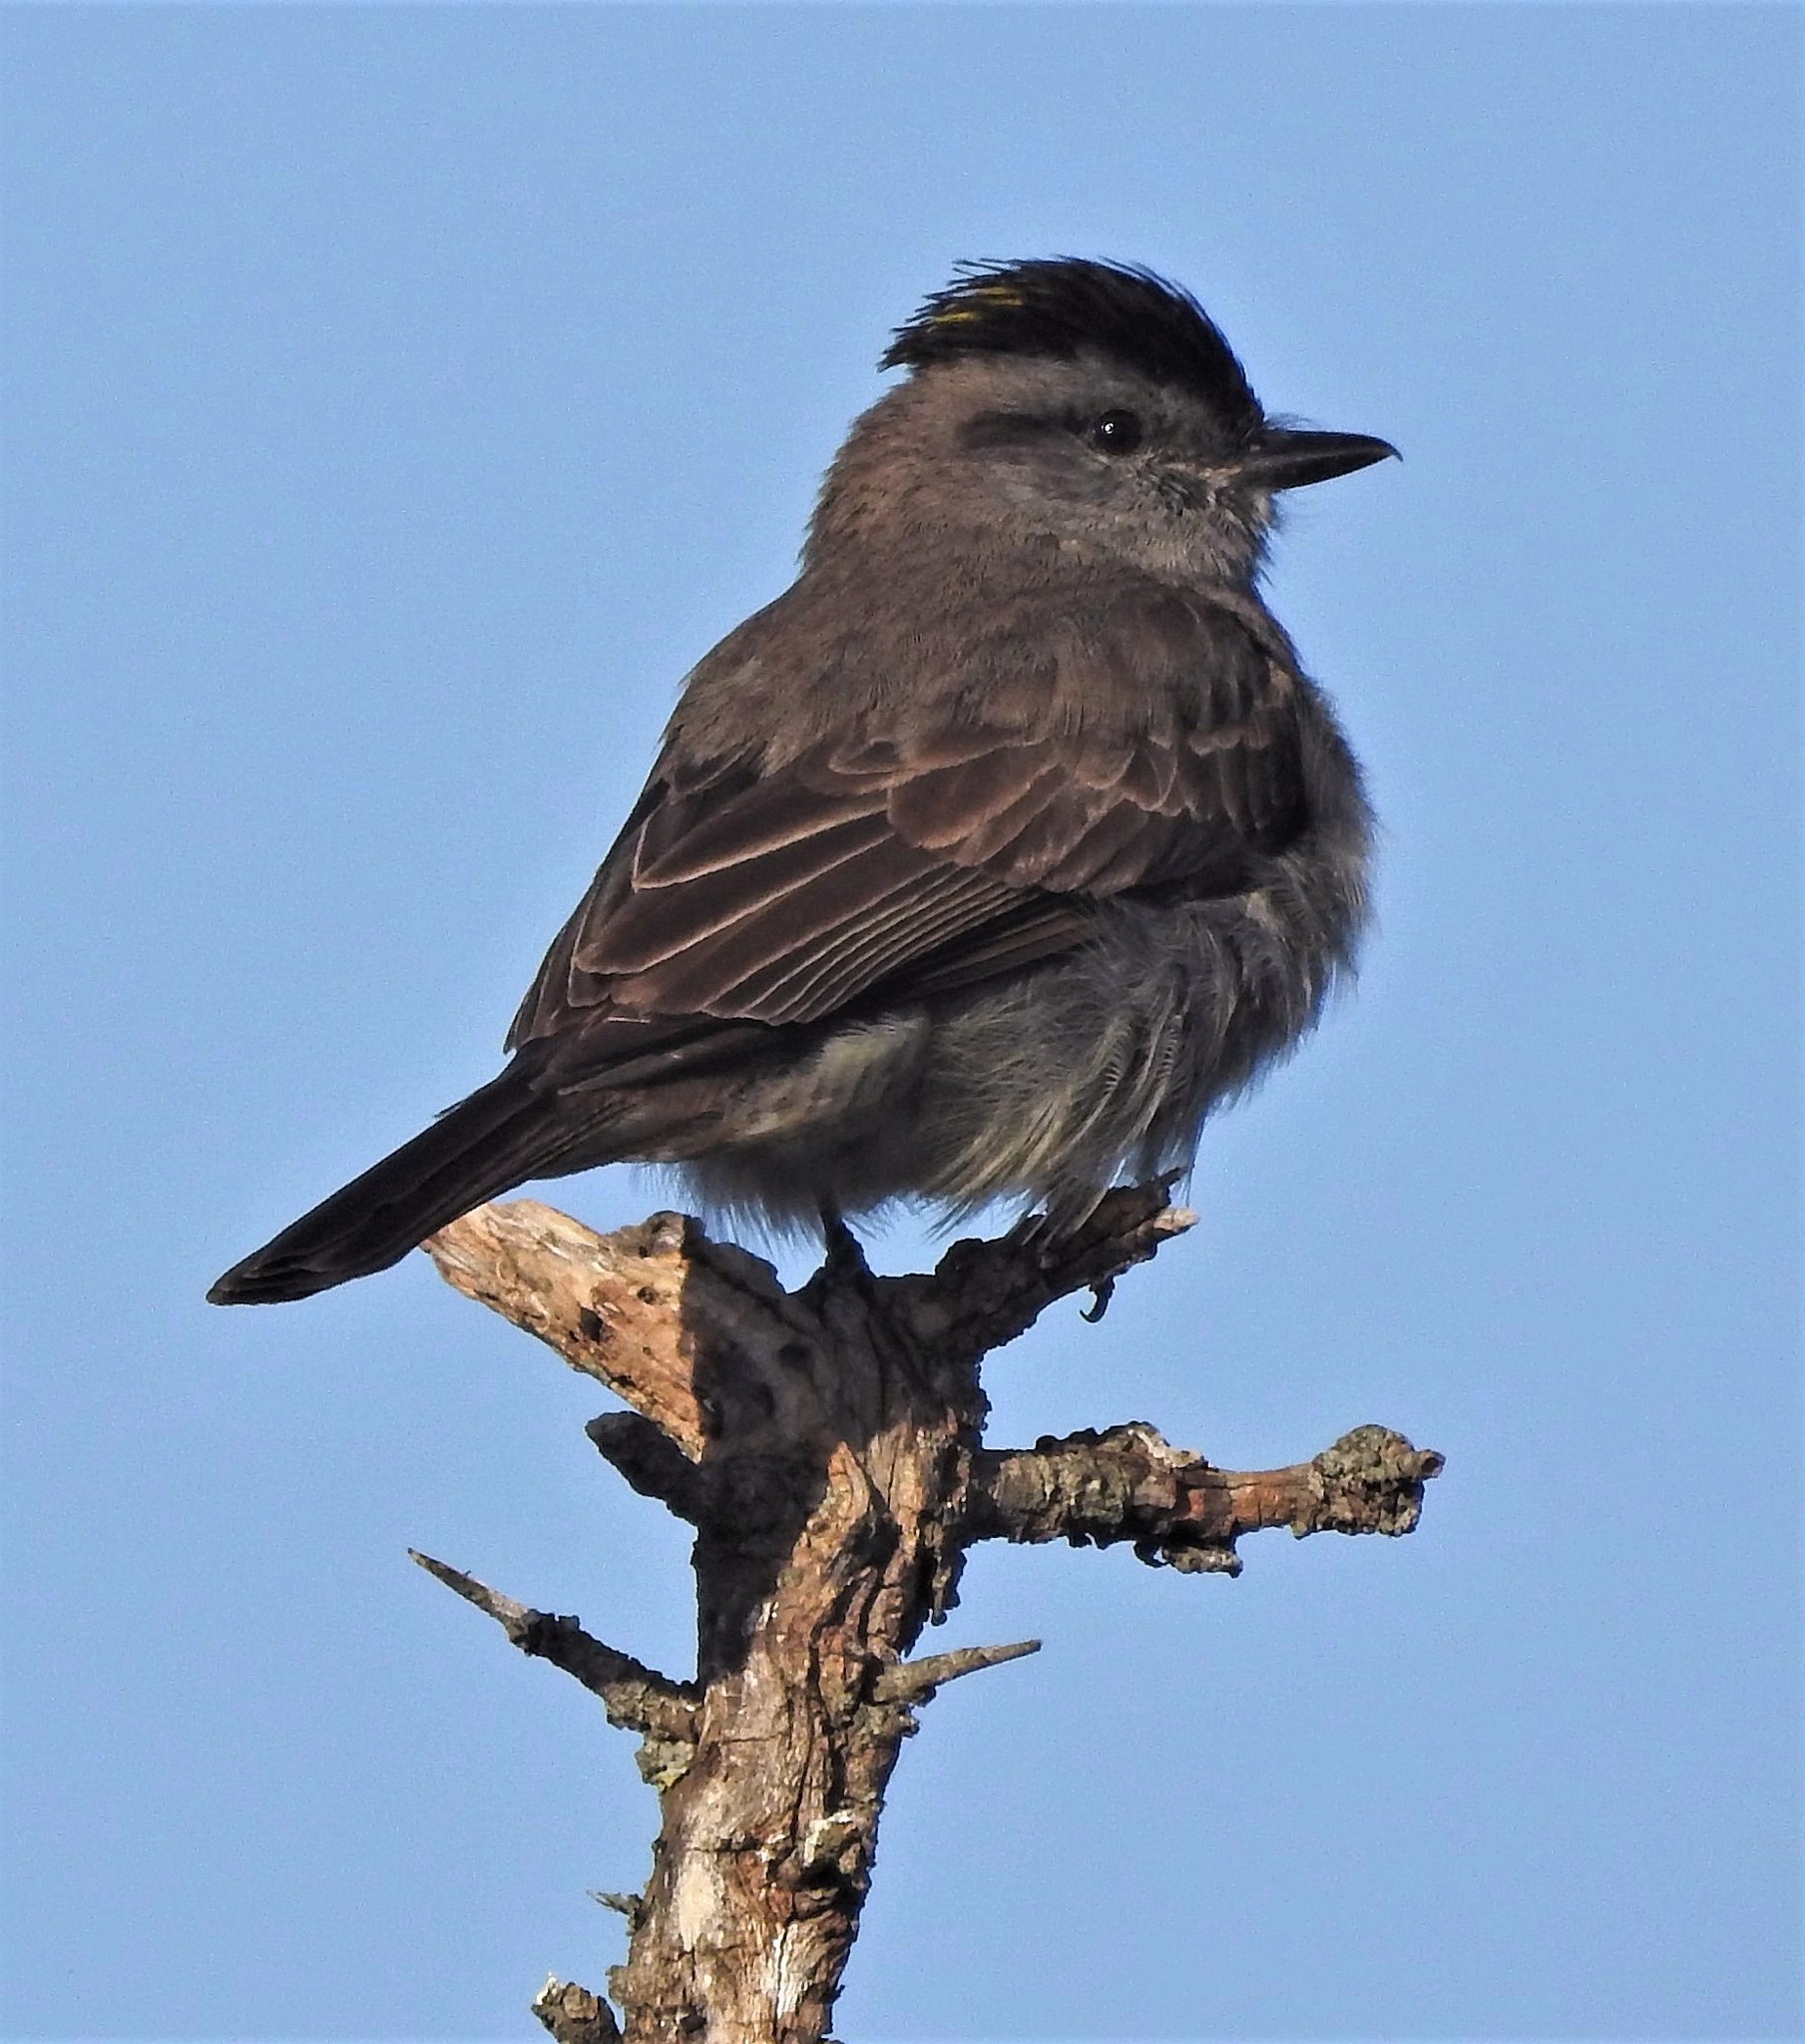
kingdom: Animalia
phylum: Chordata
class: Aves
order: Passeriformes
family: Tyrannidae
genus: Empidonomus
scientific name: Empidonomus aurantioatrocristatus
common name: Crowned slaty flycatcher
